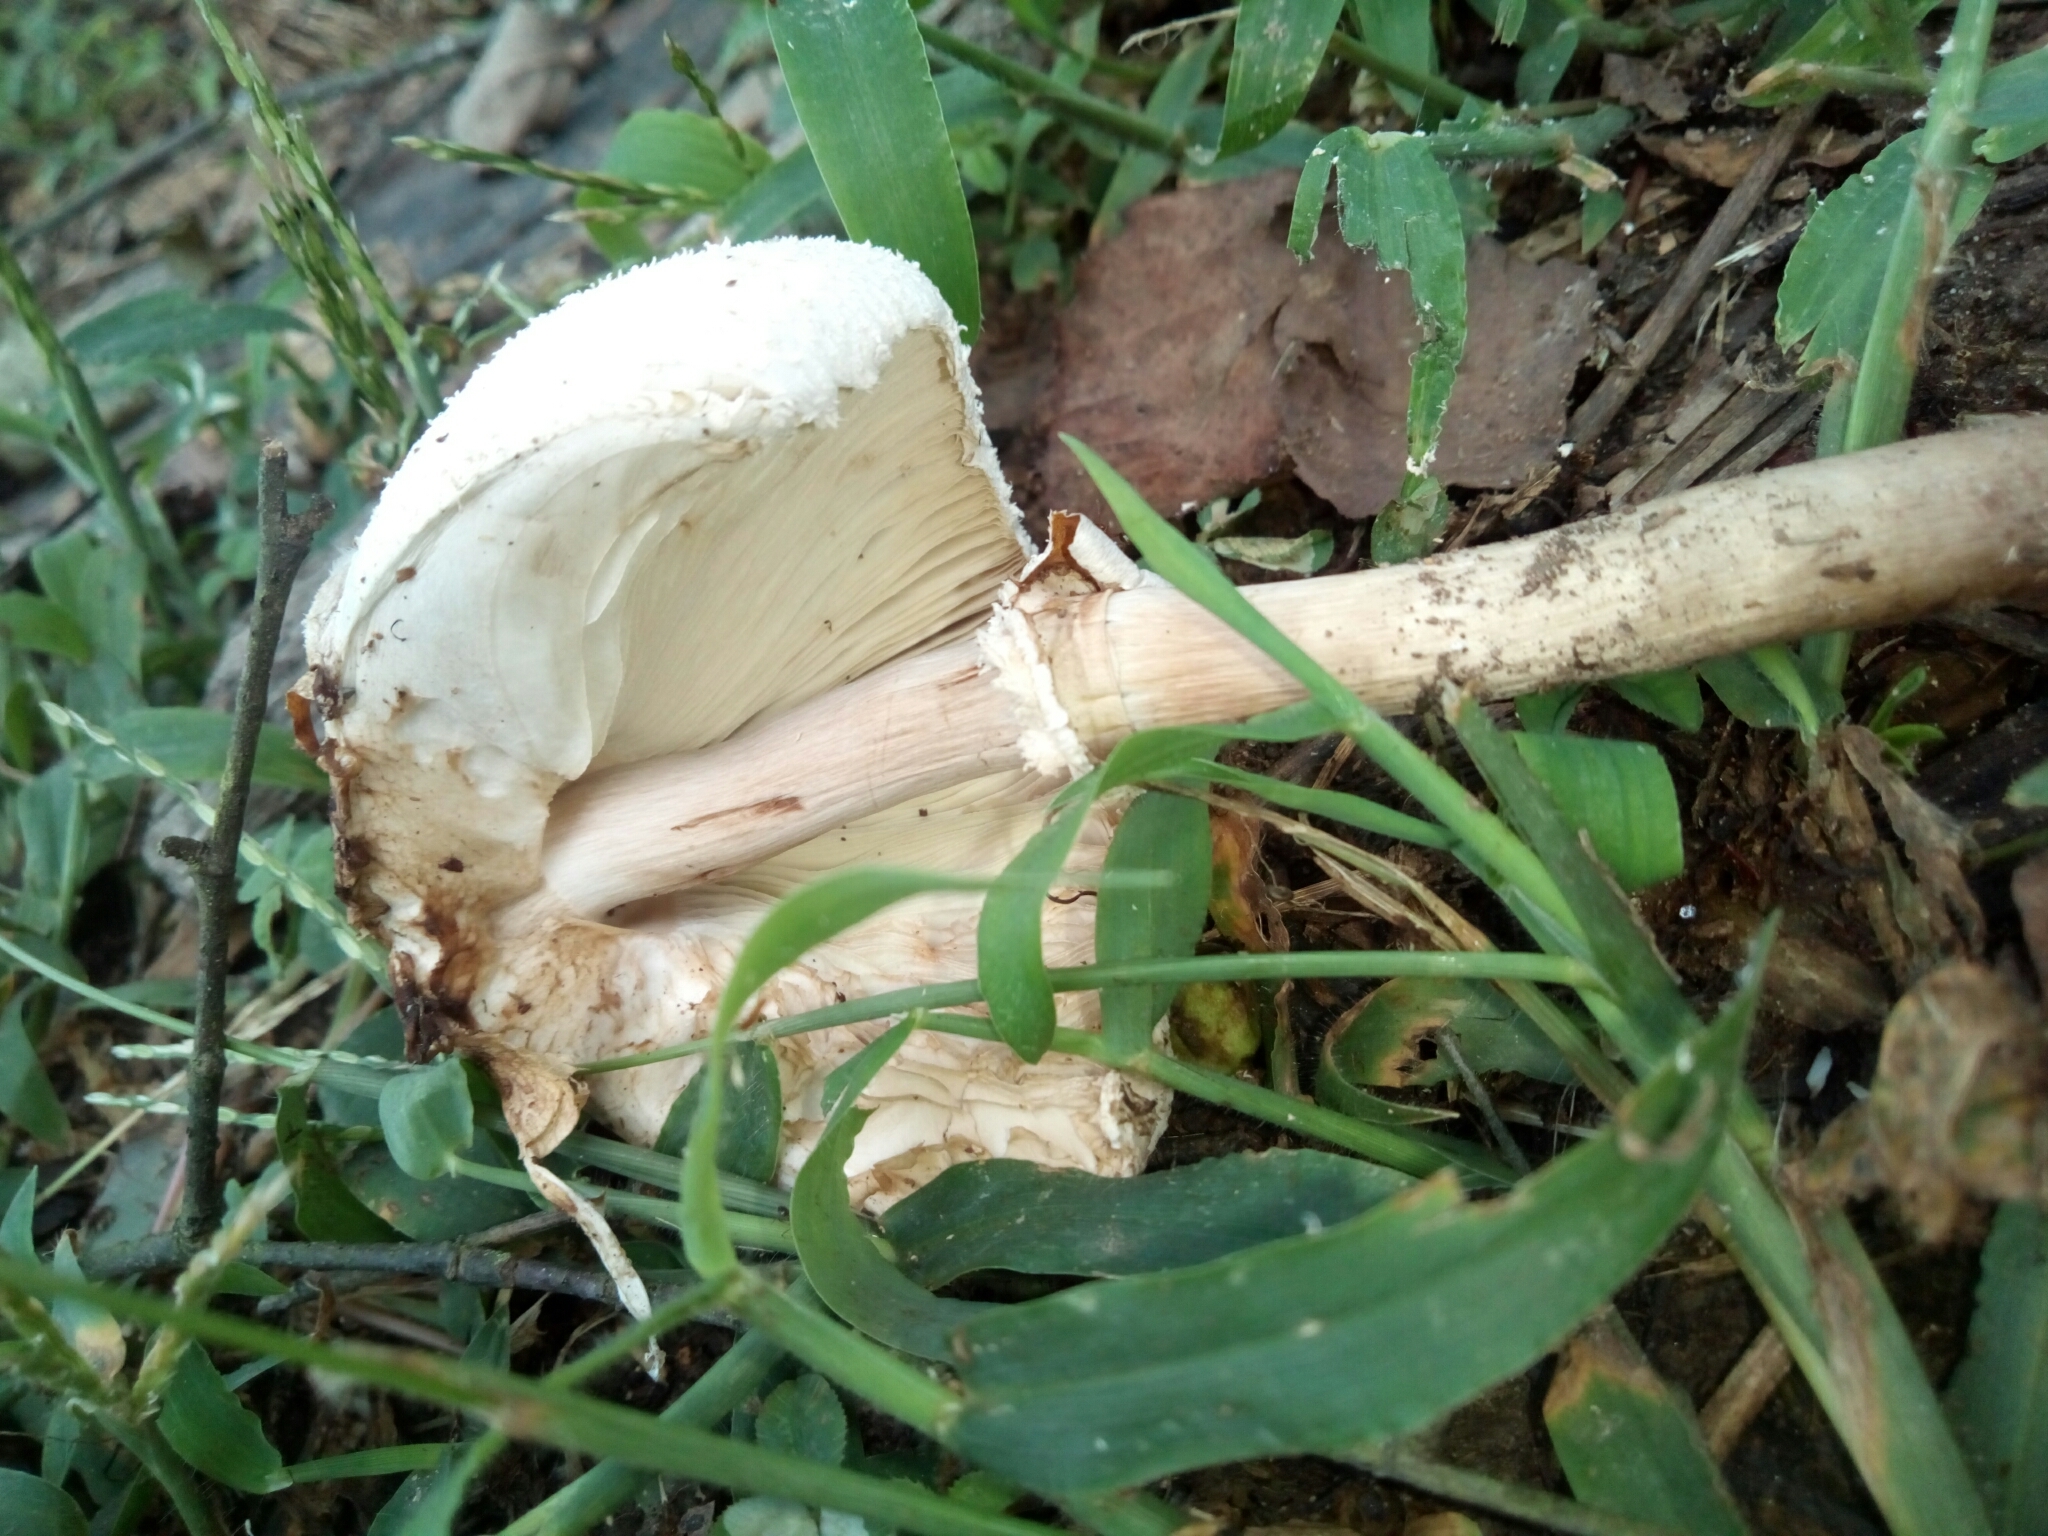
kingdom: Fungi
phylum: Basidiomycota
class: Agaricomycetes
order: Agaricales
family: Agaricaceae
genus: Chlorophyllum
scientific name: Chlorophyllum molybdites
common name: False parasol
